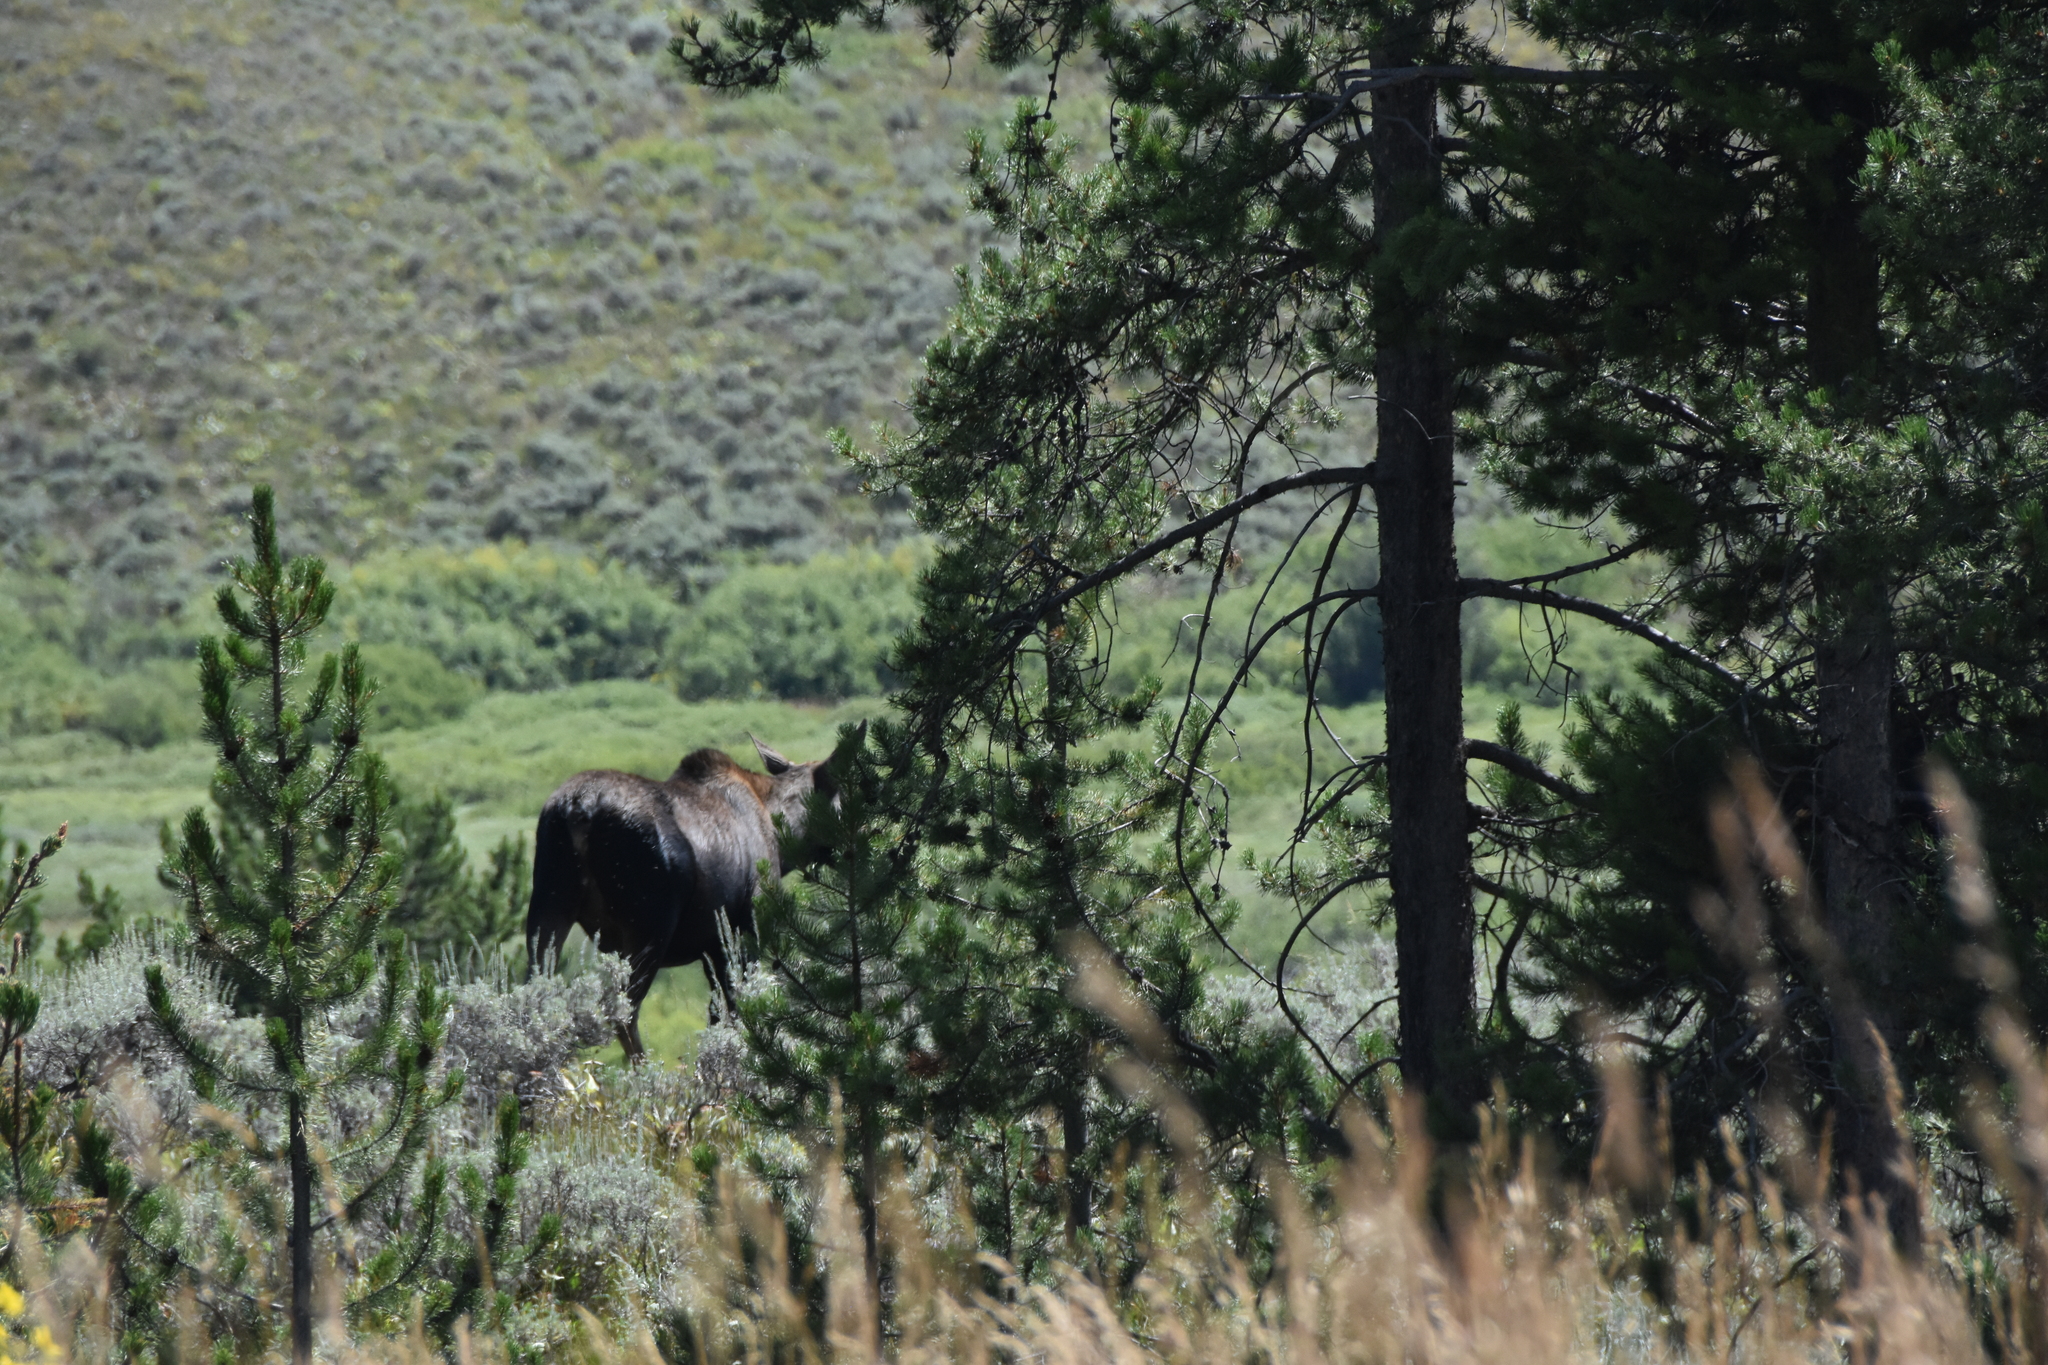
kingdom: Animalia
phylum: Chordata
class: Mammalia
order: Artiodactyla
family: Cervidae
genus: Alces
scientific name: Alces alces
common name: Moose
